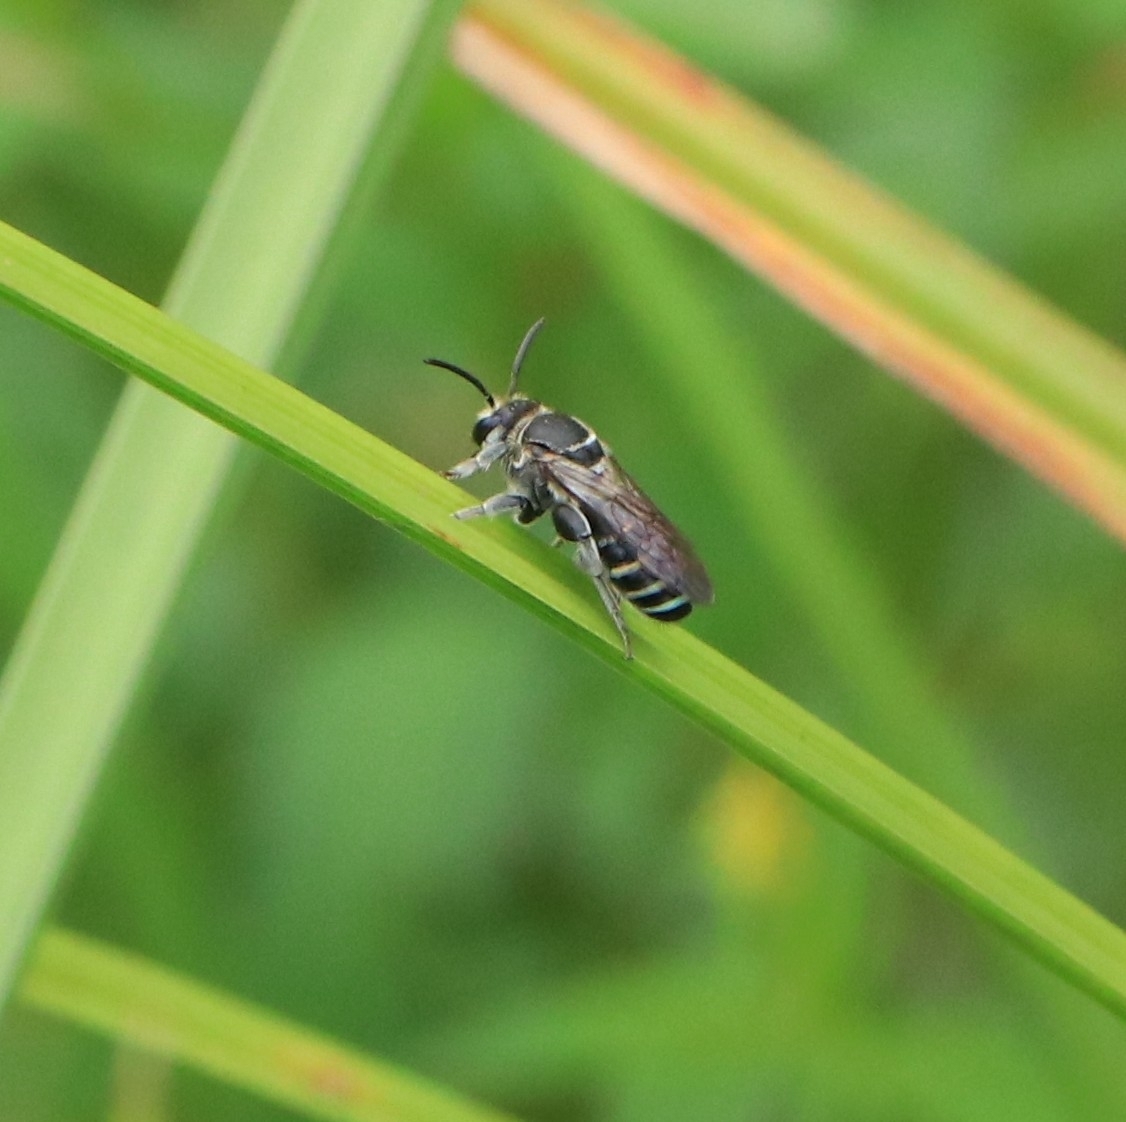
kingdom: Animalia
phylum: Arthropoda
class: Insecta
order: Hymenoptera
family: Halictidae
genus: Nomia
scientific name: Nomia ellioti
